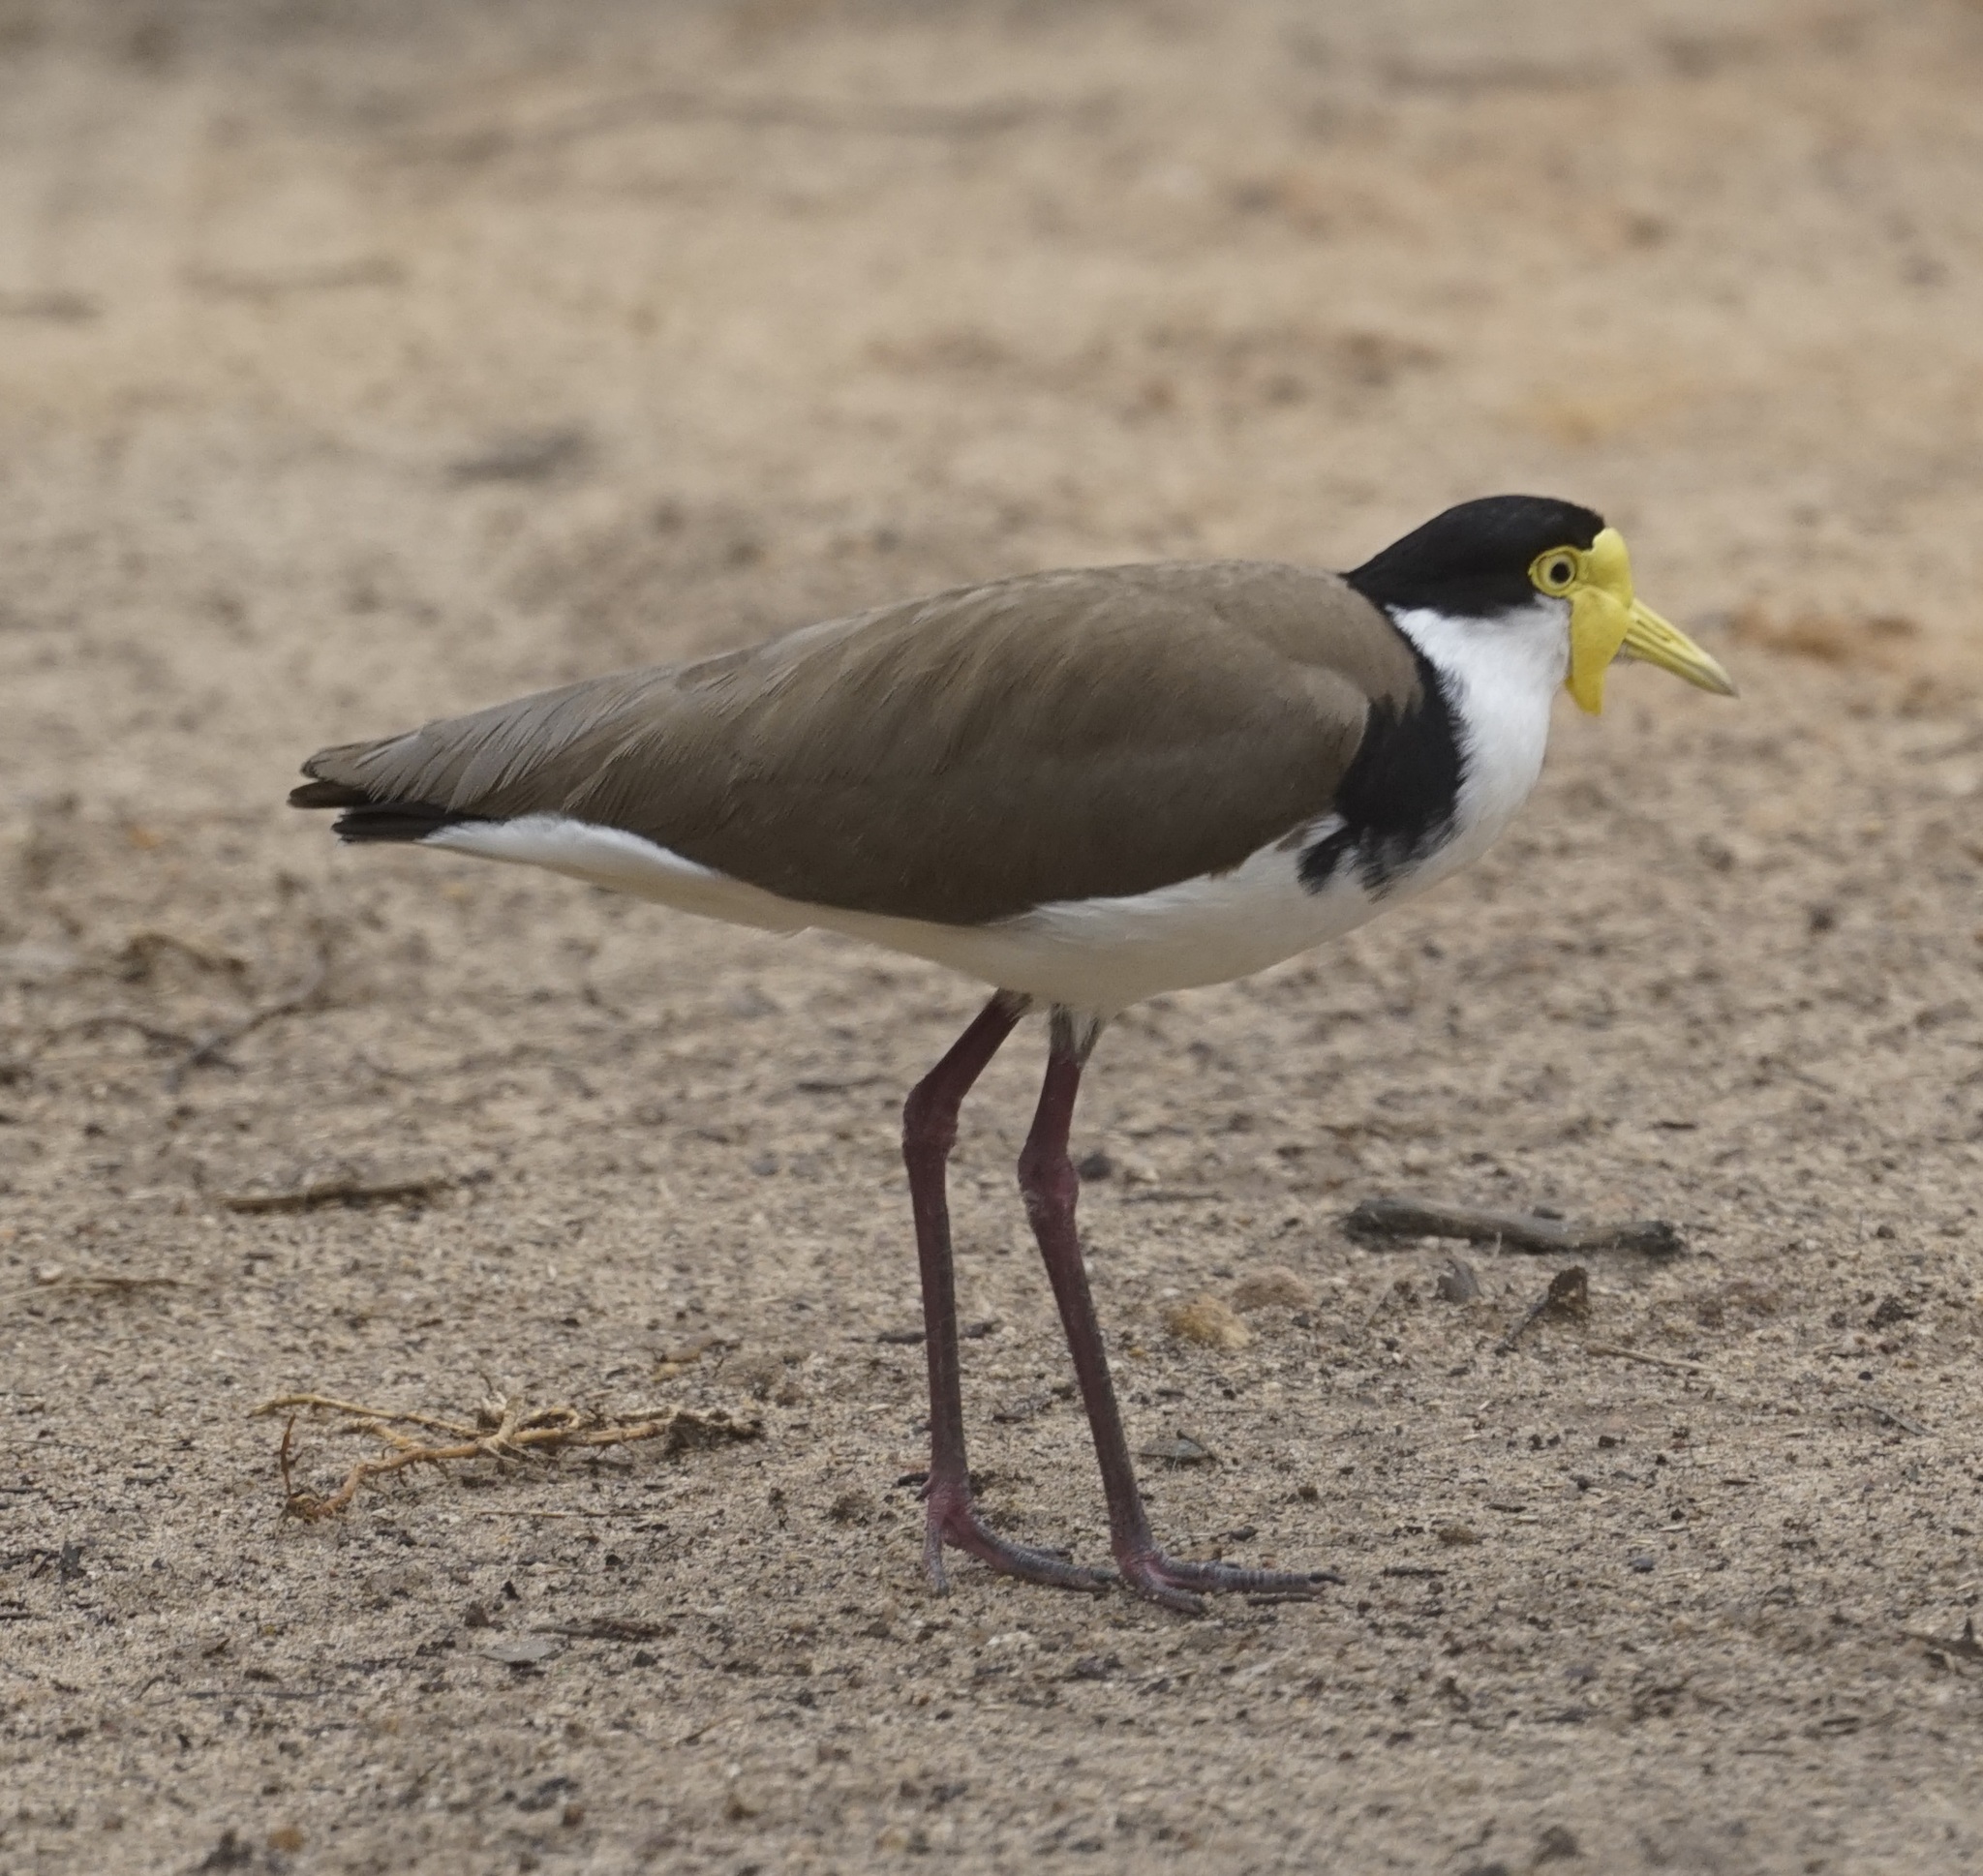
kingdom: Animalia
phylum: Chordata
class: Aves
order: Charadriiformes
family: Charadriidae
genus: Vanellus
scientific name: Vanellus miles
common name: Masked lapwing
